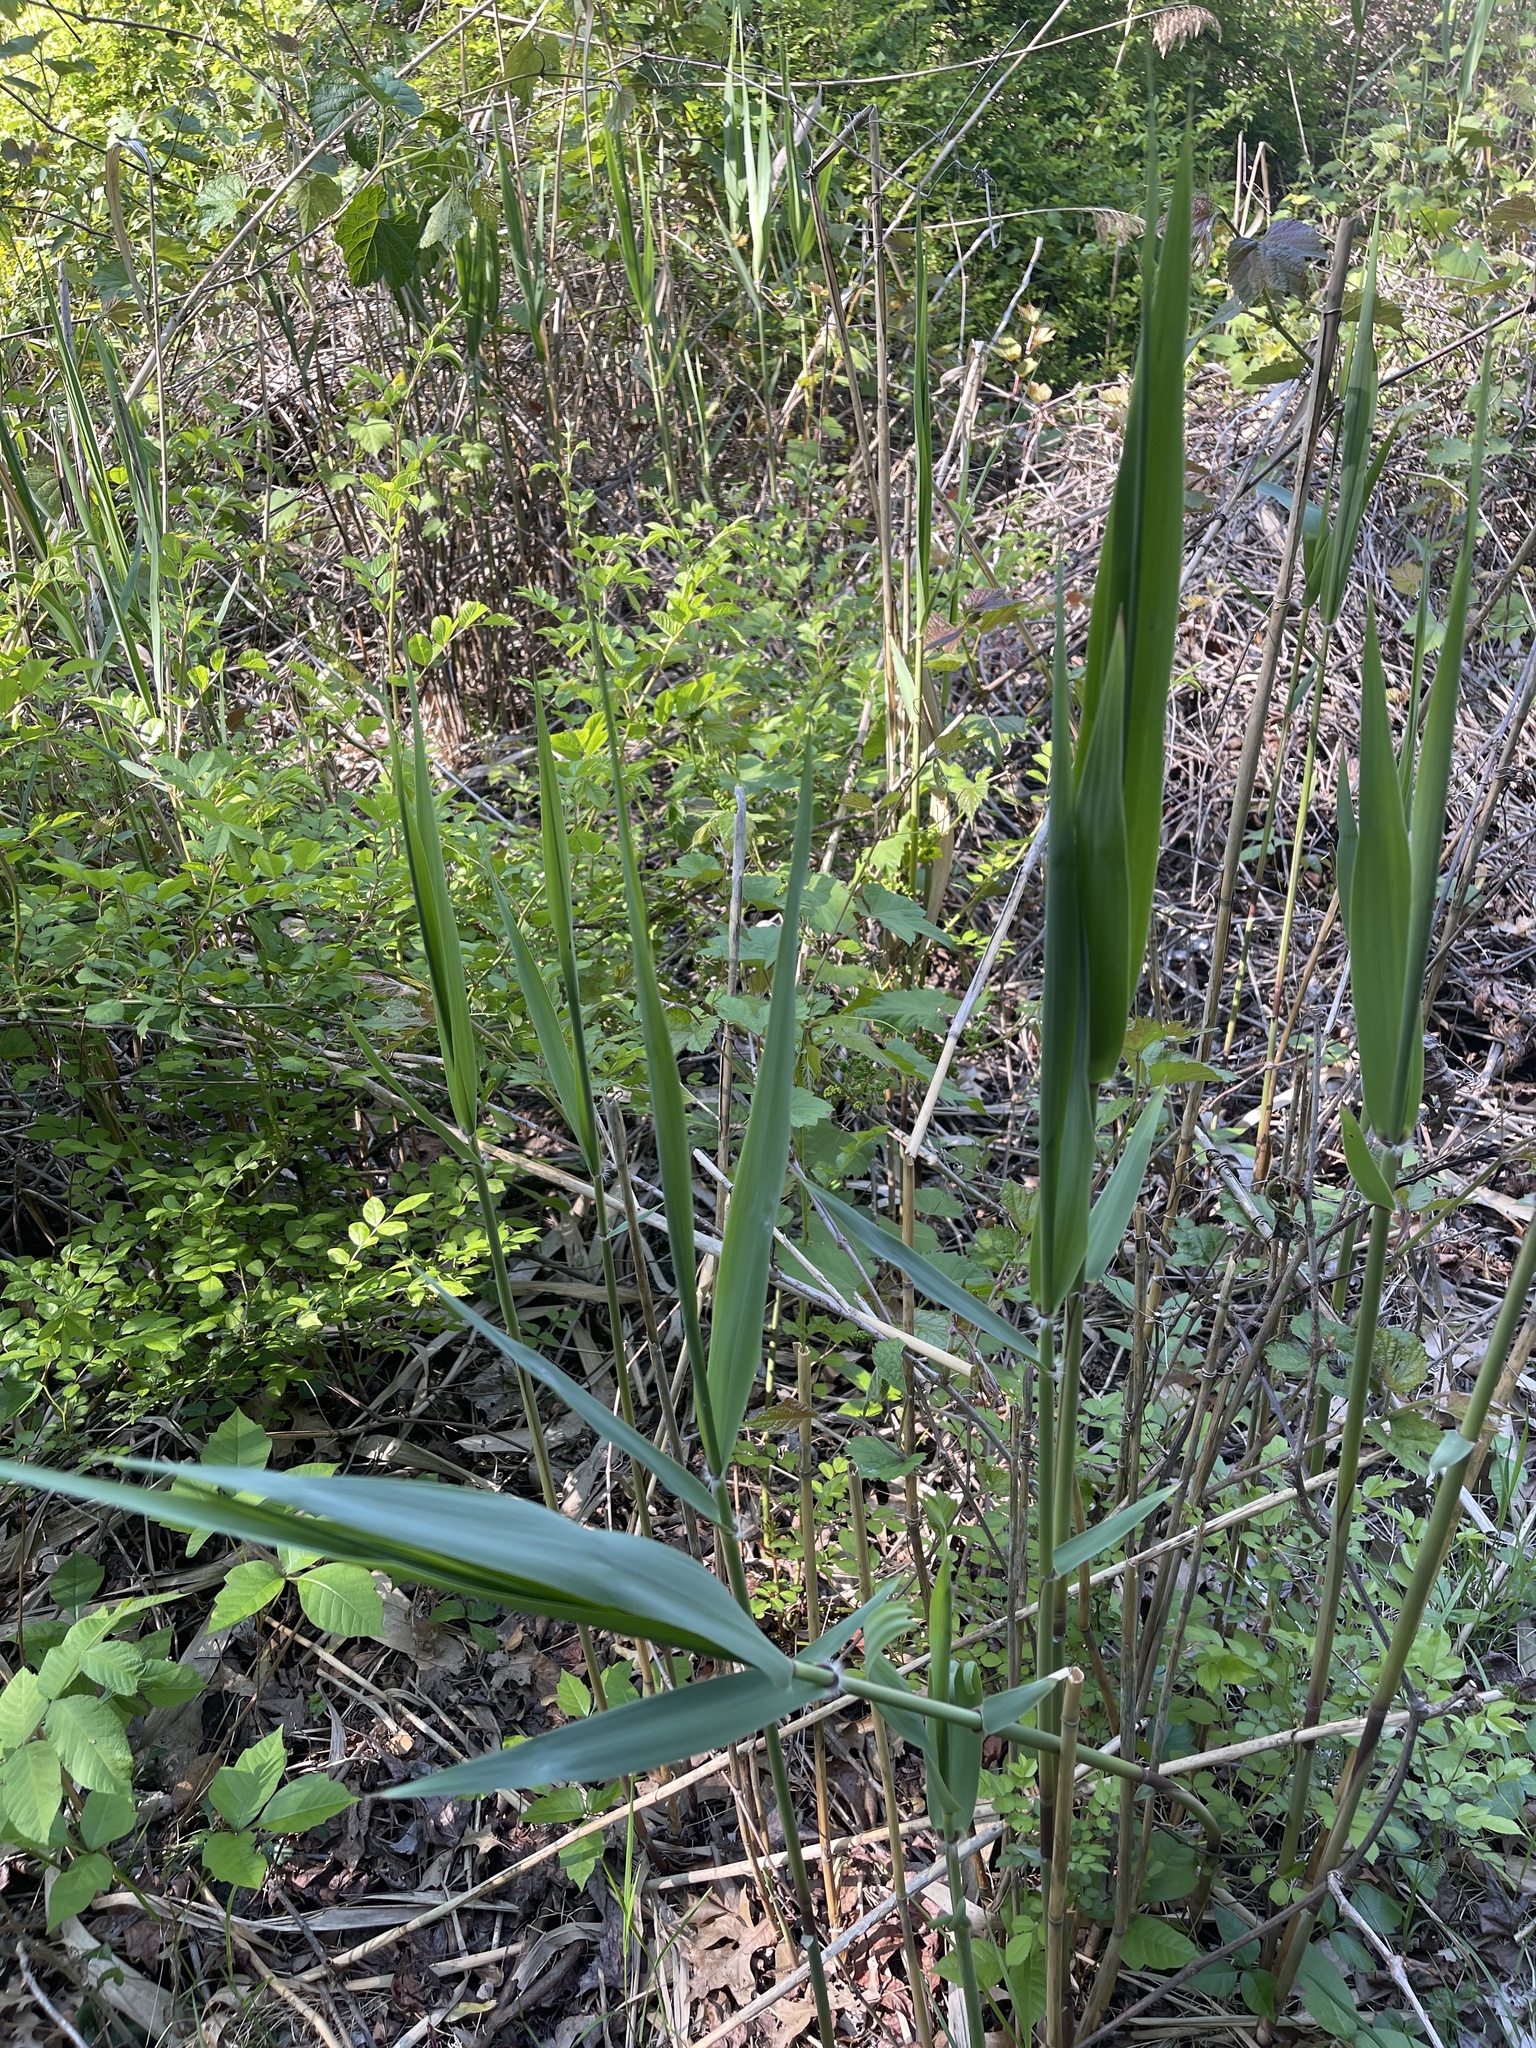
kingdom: Plantae
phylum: Tracheophyta
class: Liliopsida
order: Poales
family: Poaceae
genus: Phragmites
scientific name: Phragmites australis
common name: Common reed
